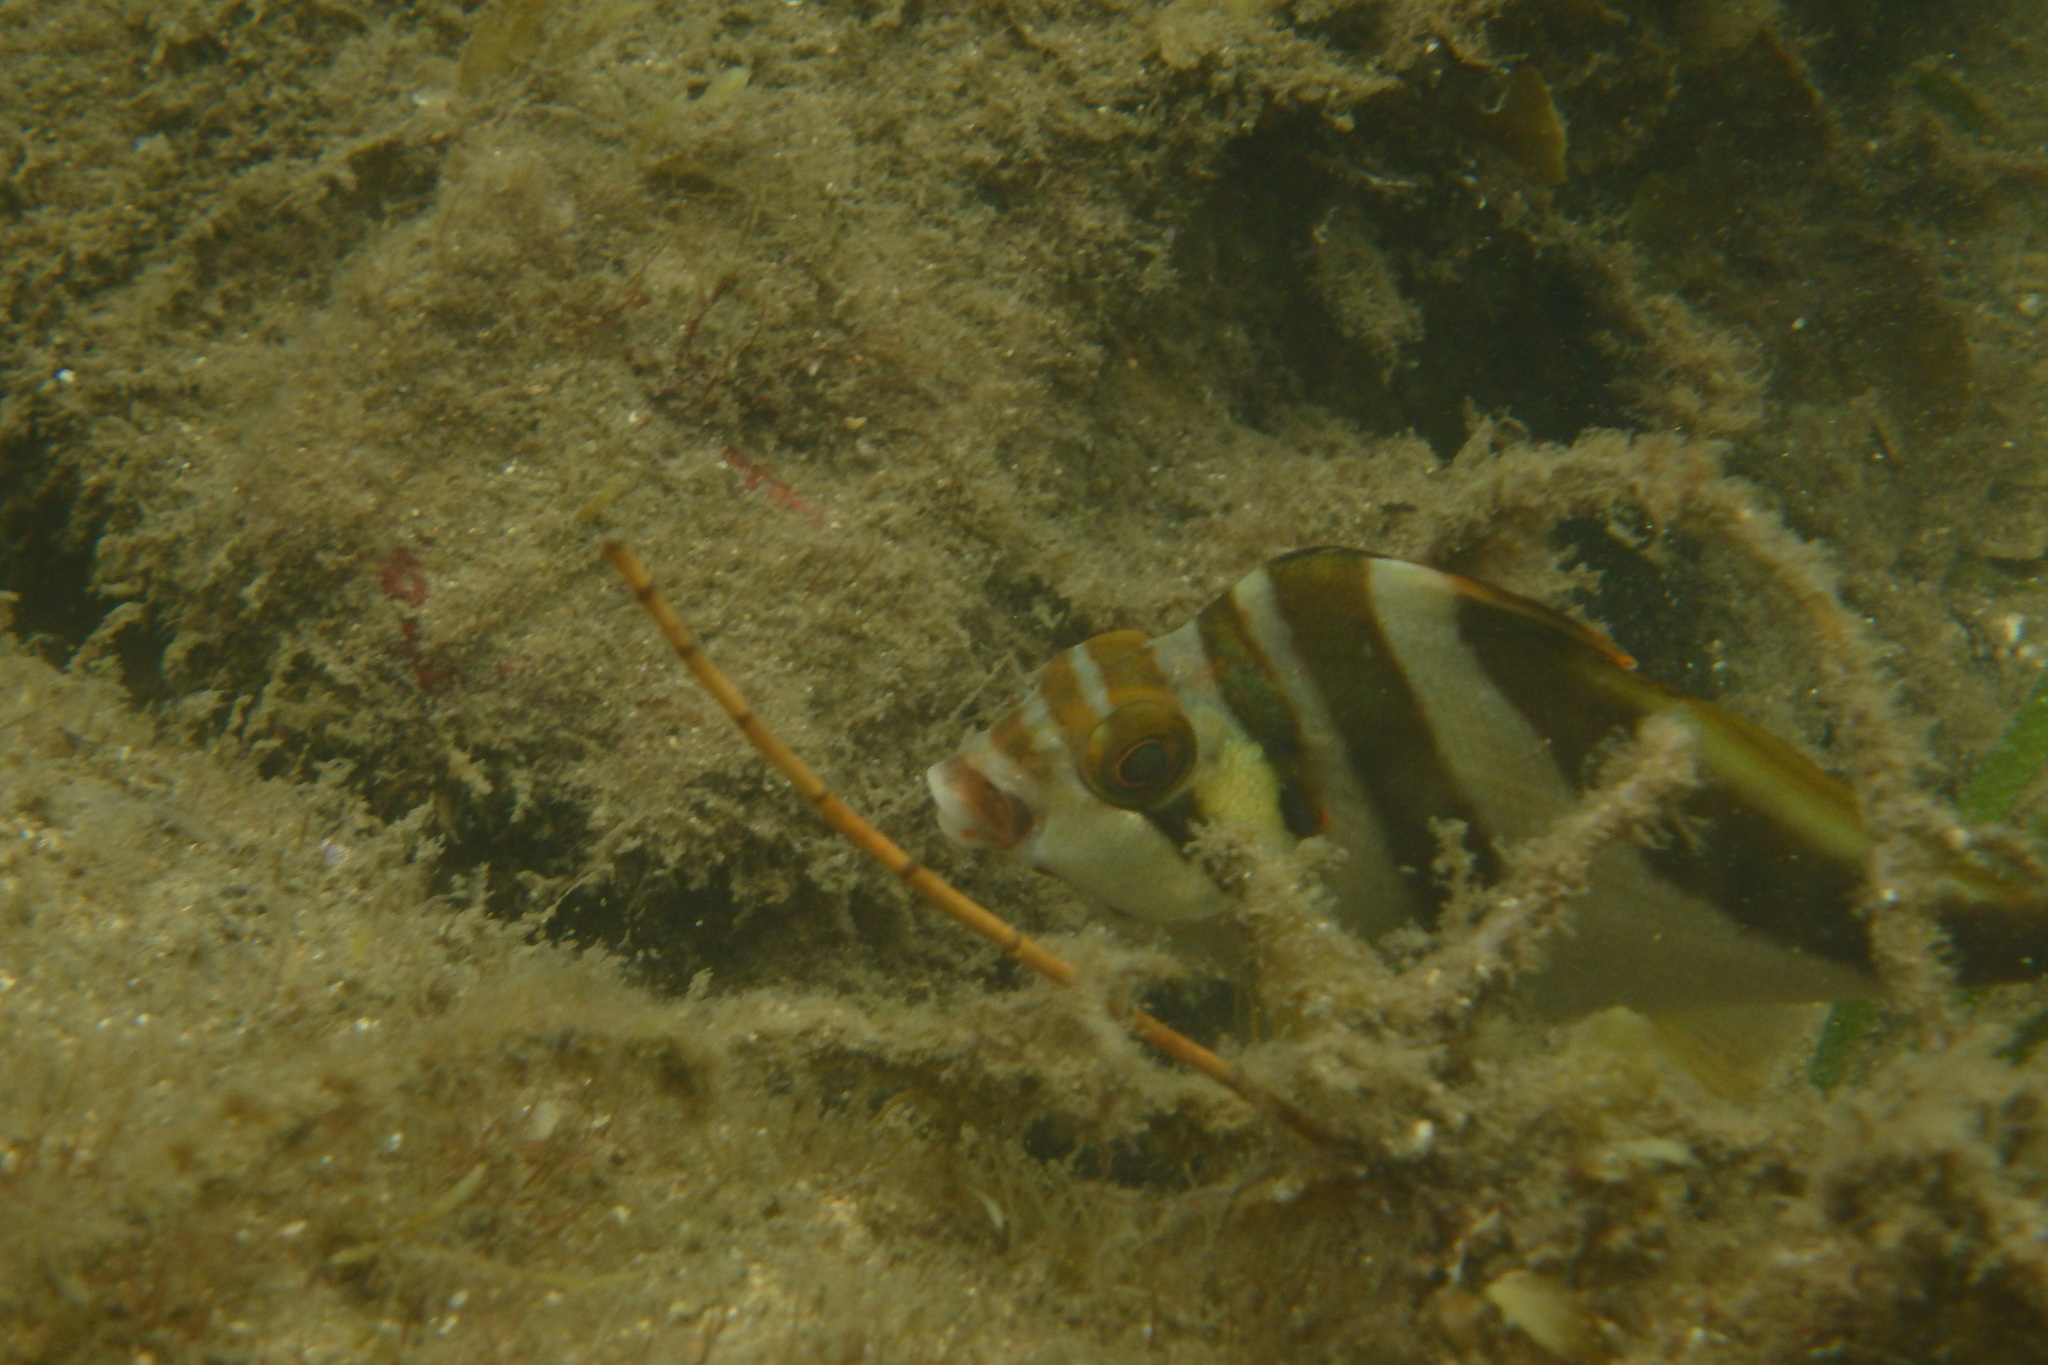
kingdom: Animalia
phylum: Chordata
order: Perciformes
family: Cheilodactylidae
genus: Cheilodactylus
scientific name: Cheilodactylus vestitus
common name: Crested morwong
